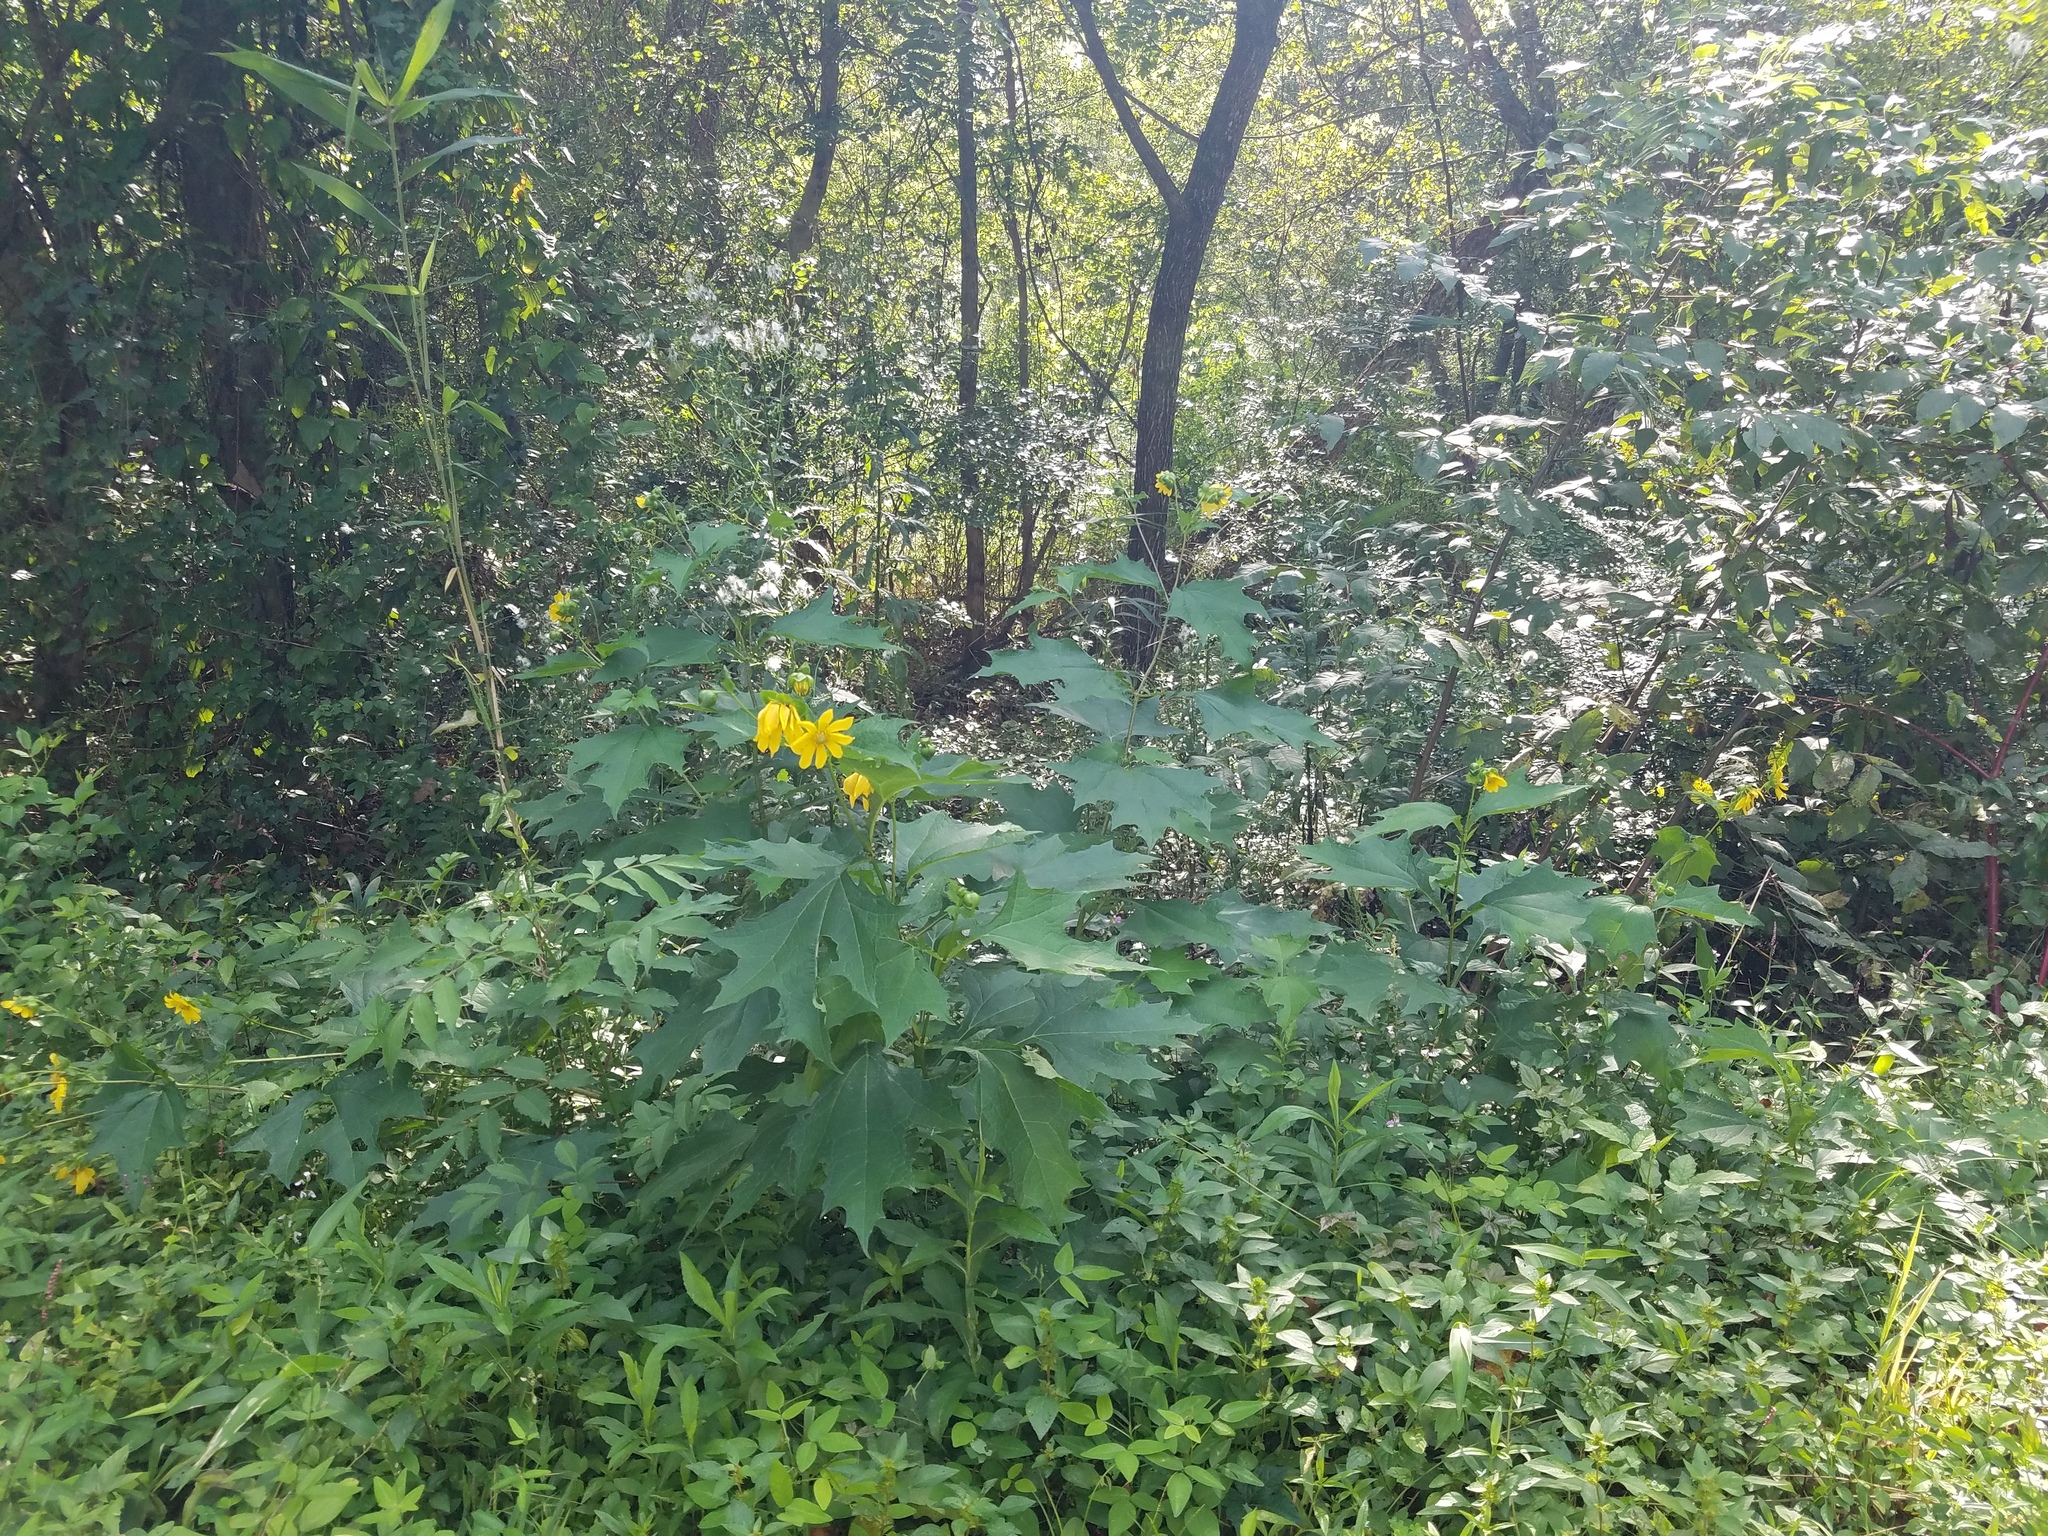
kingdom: Plantae
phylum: Tracheophyta
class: Magnoliopsida
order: Asterales
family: Asteraceae
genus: Smallanthus
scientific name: Smallanthus uvedalia
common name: Bear's-foot
